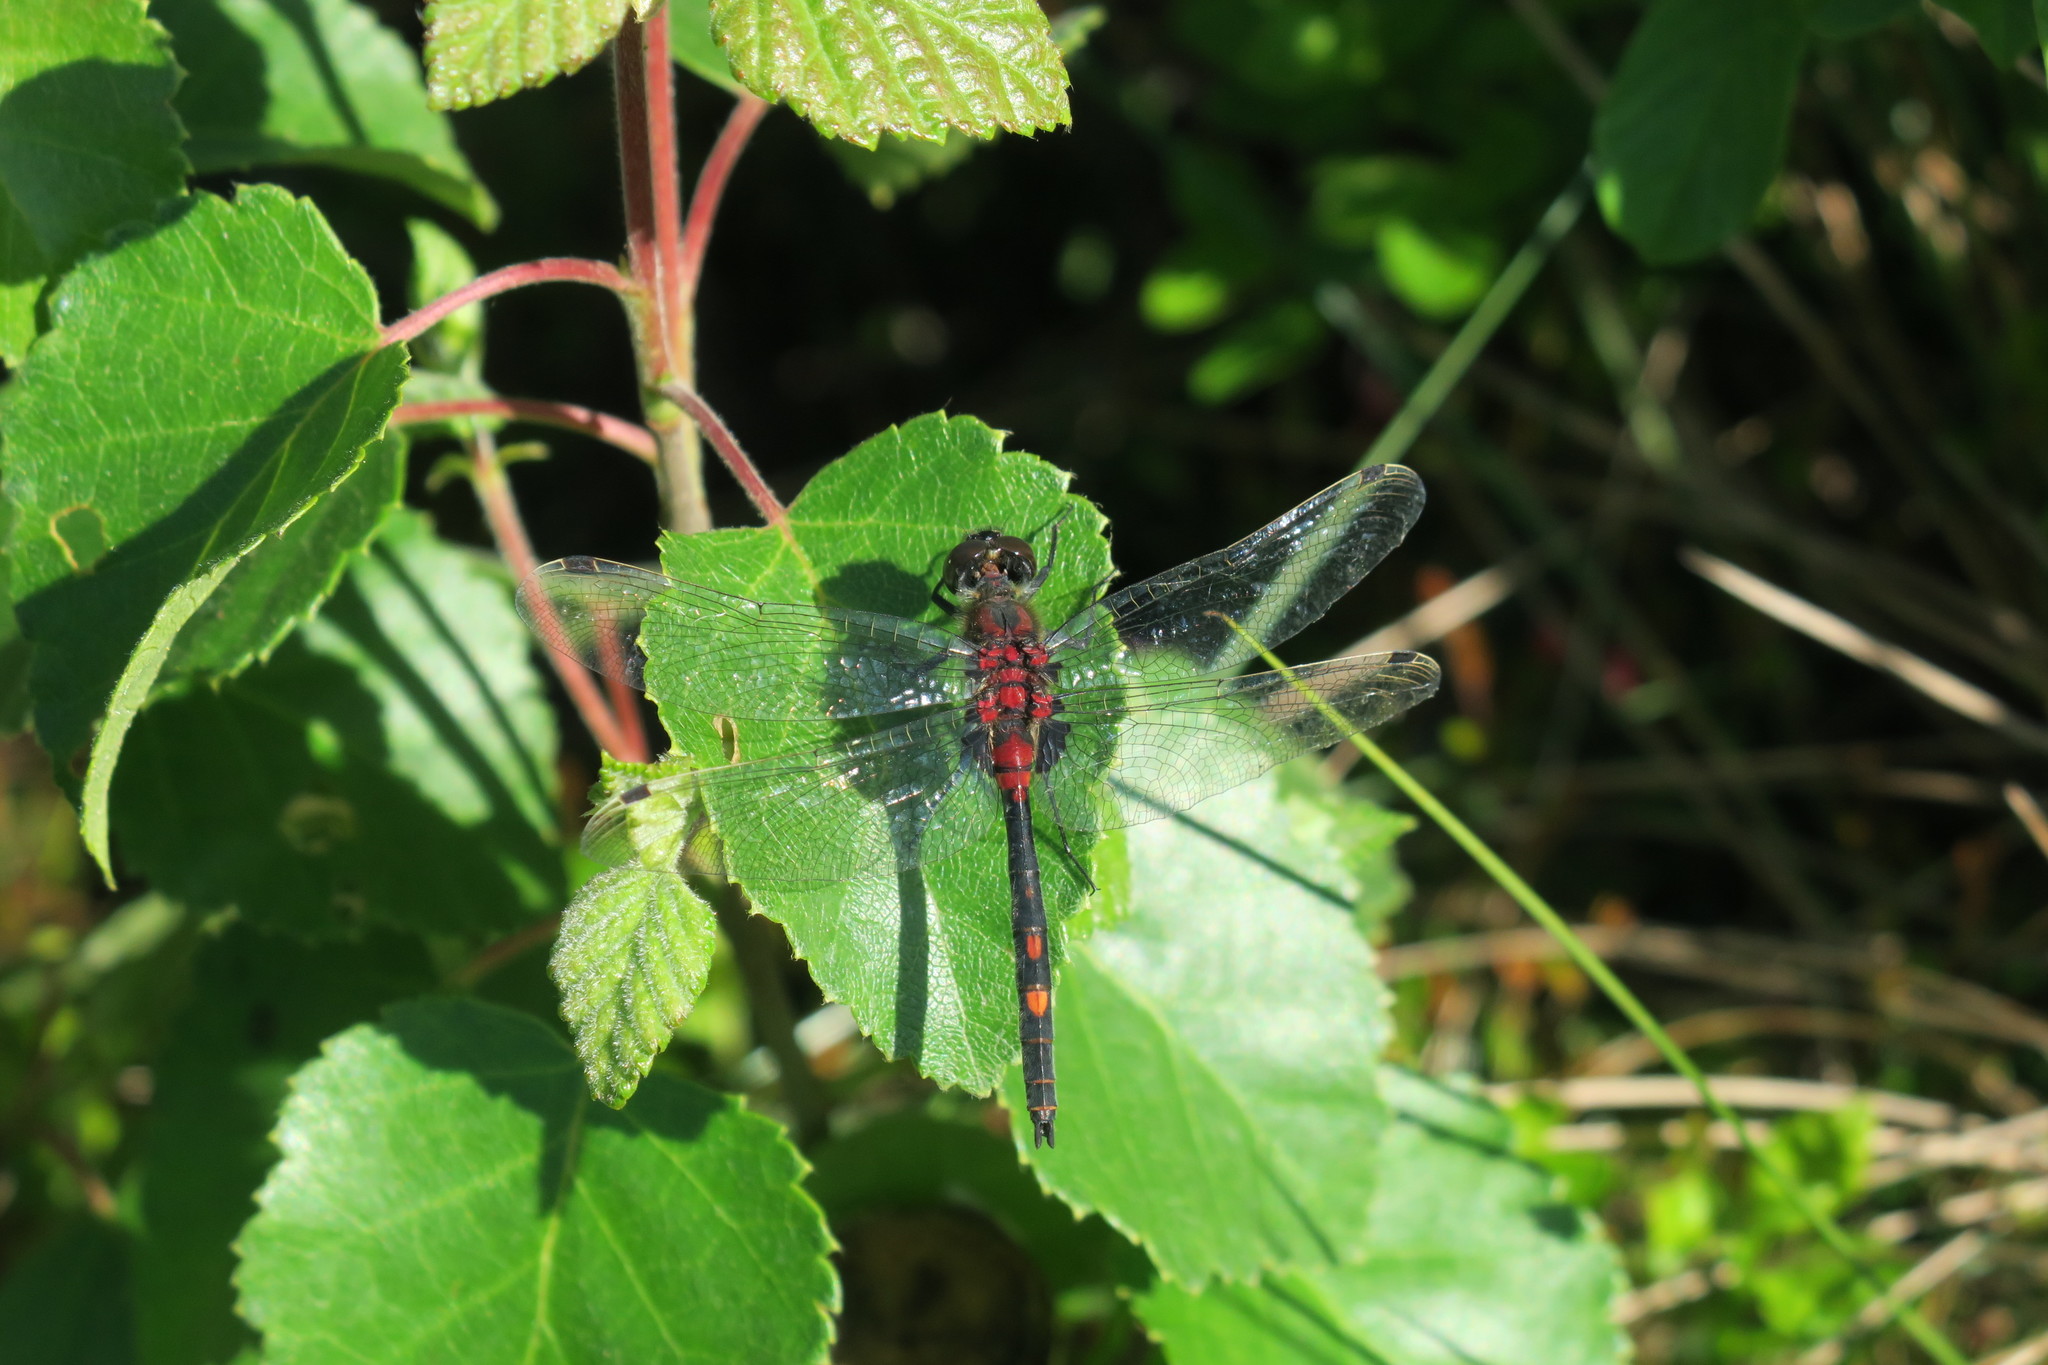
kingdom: Animalia
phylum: Arthropoda
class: Insecta
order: Odonata
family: Libellulidae
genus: Leucorrhinia
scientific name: Leucorrhinia dubia
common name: White-faced darter
